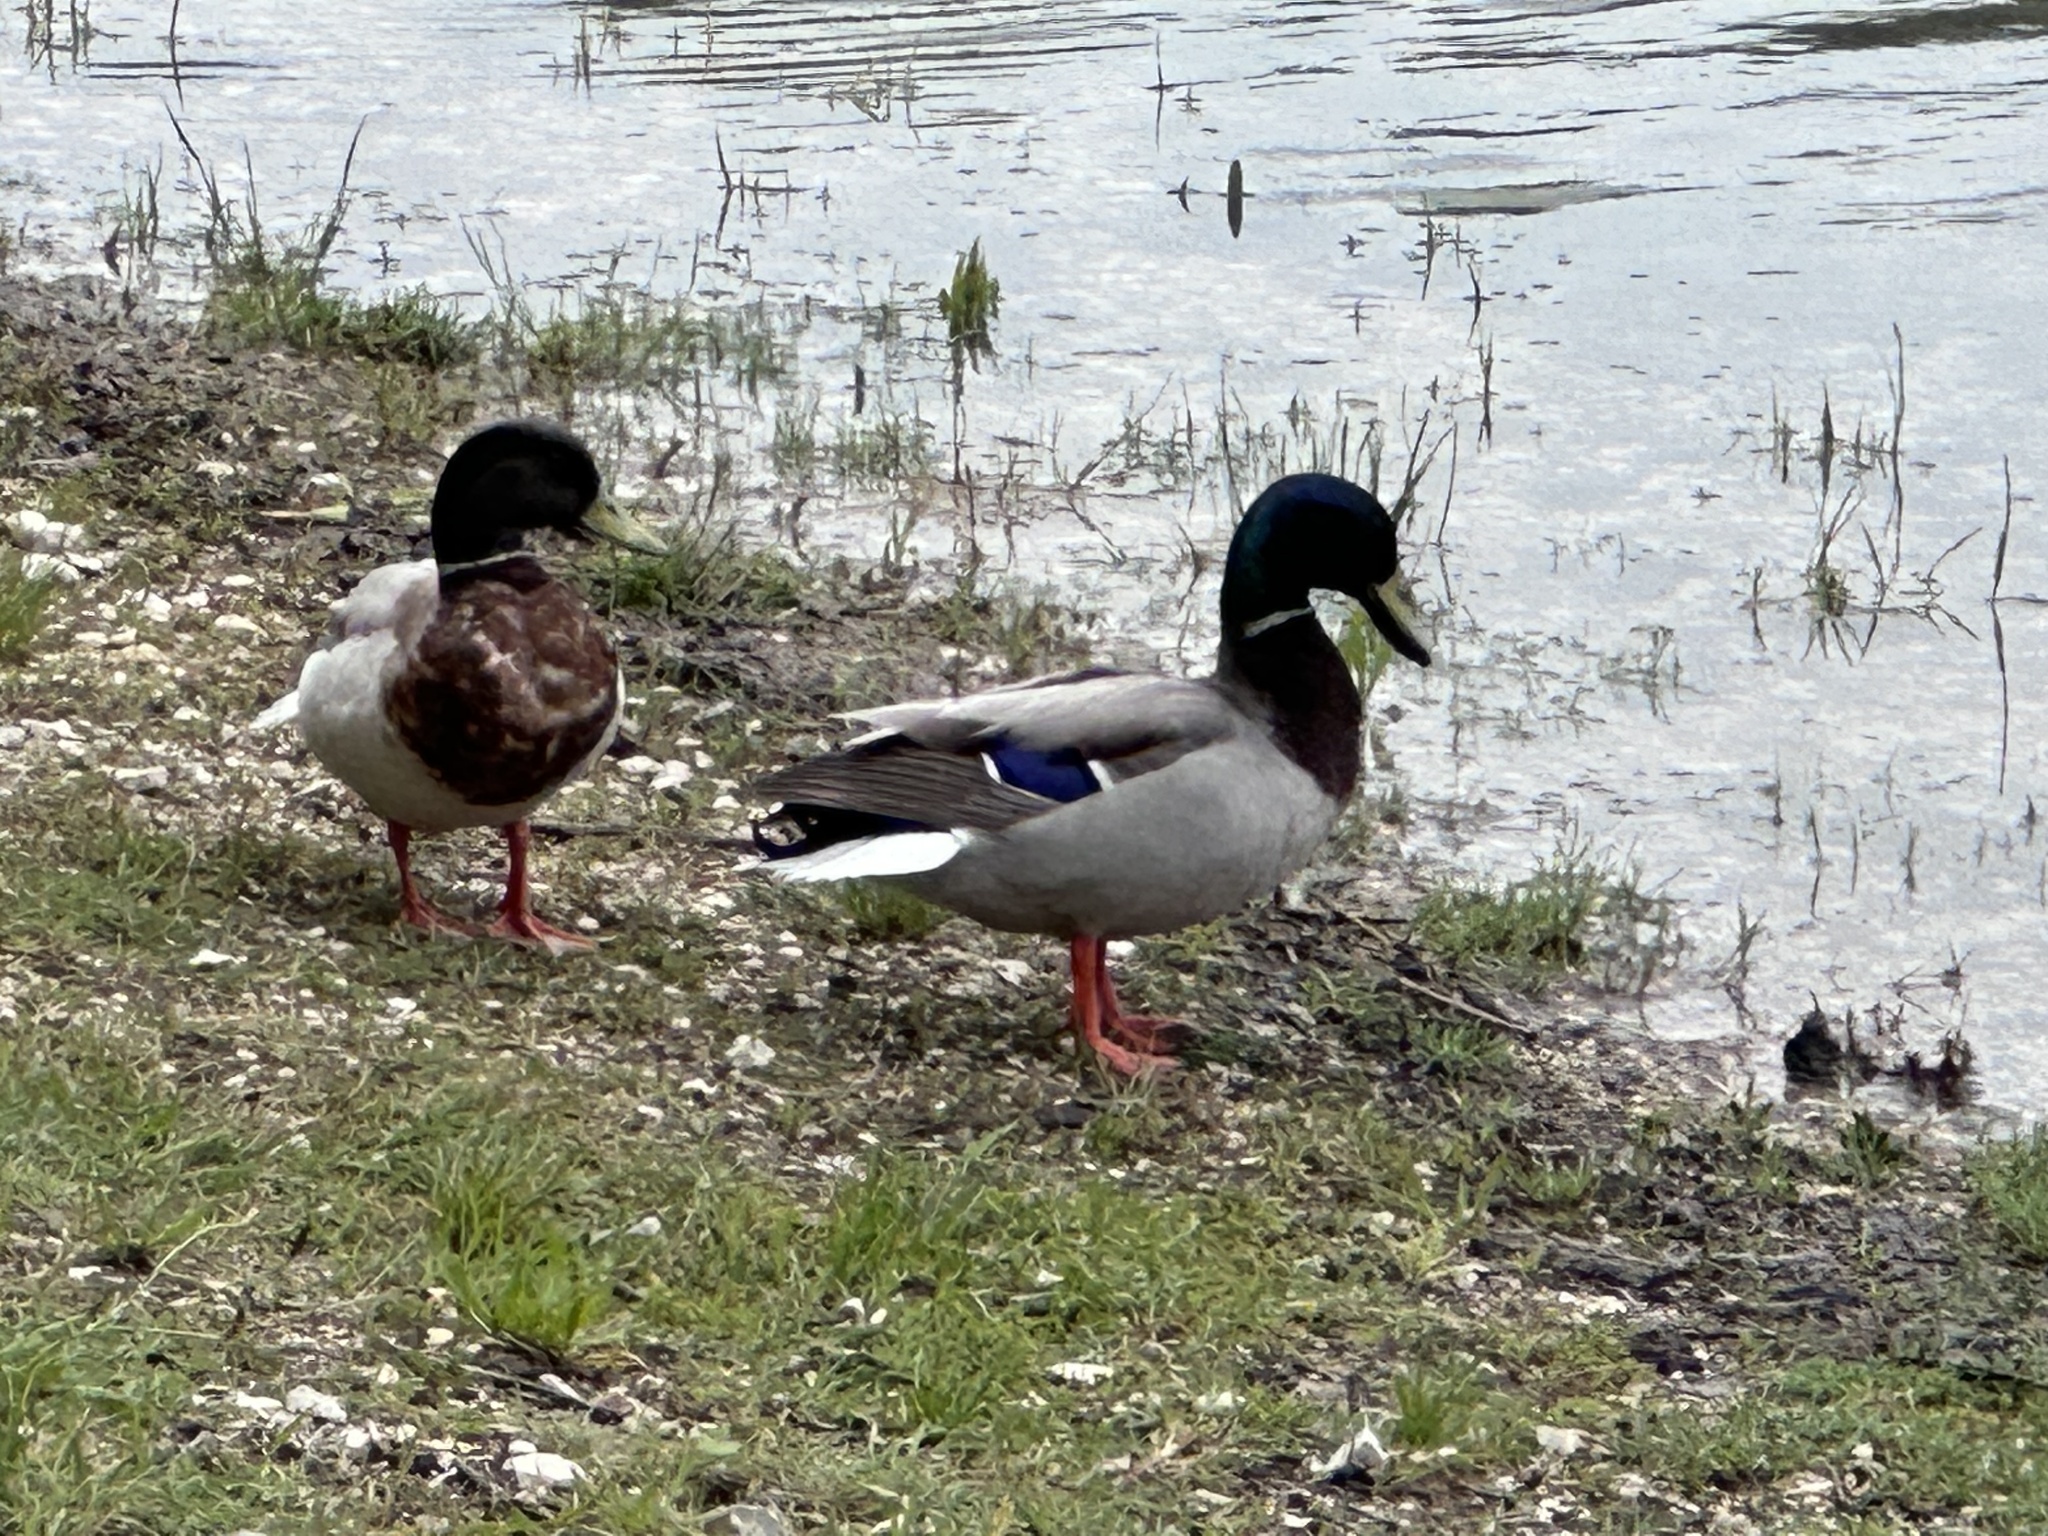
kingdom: Animalia
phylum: Chordata
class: Aves
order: Anseriformes
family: Anatidae
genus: Anas
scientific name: Anas platyrhynchos
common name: Mallard
